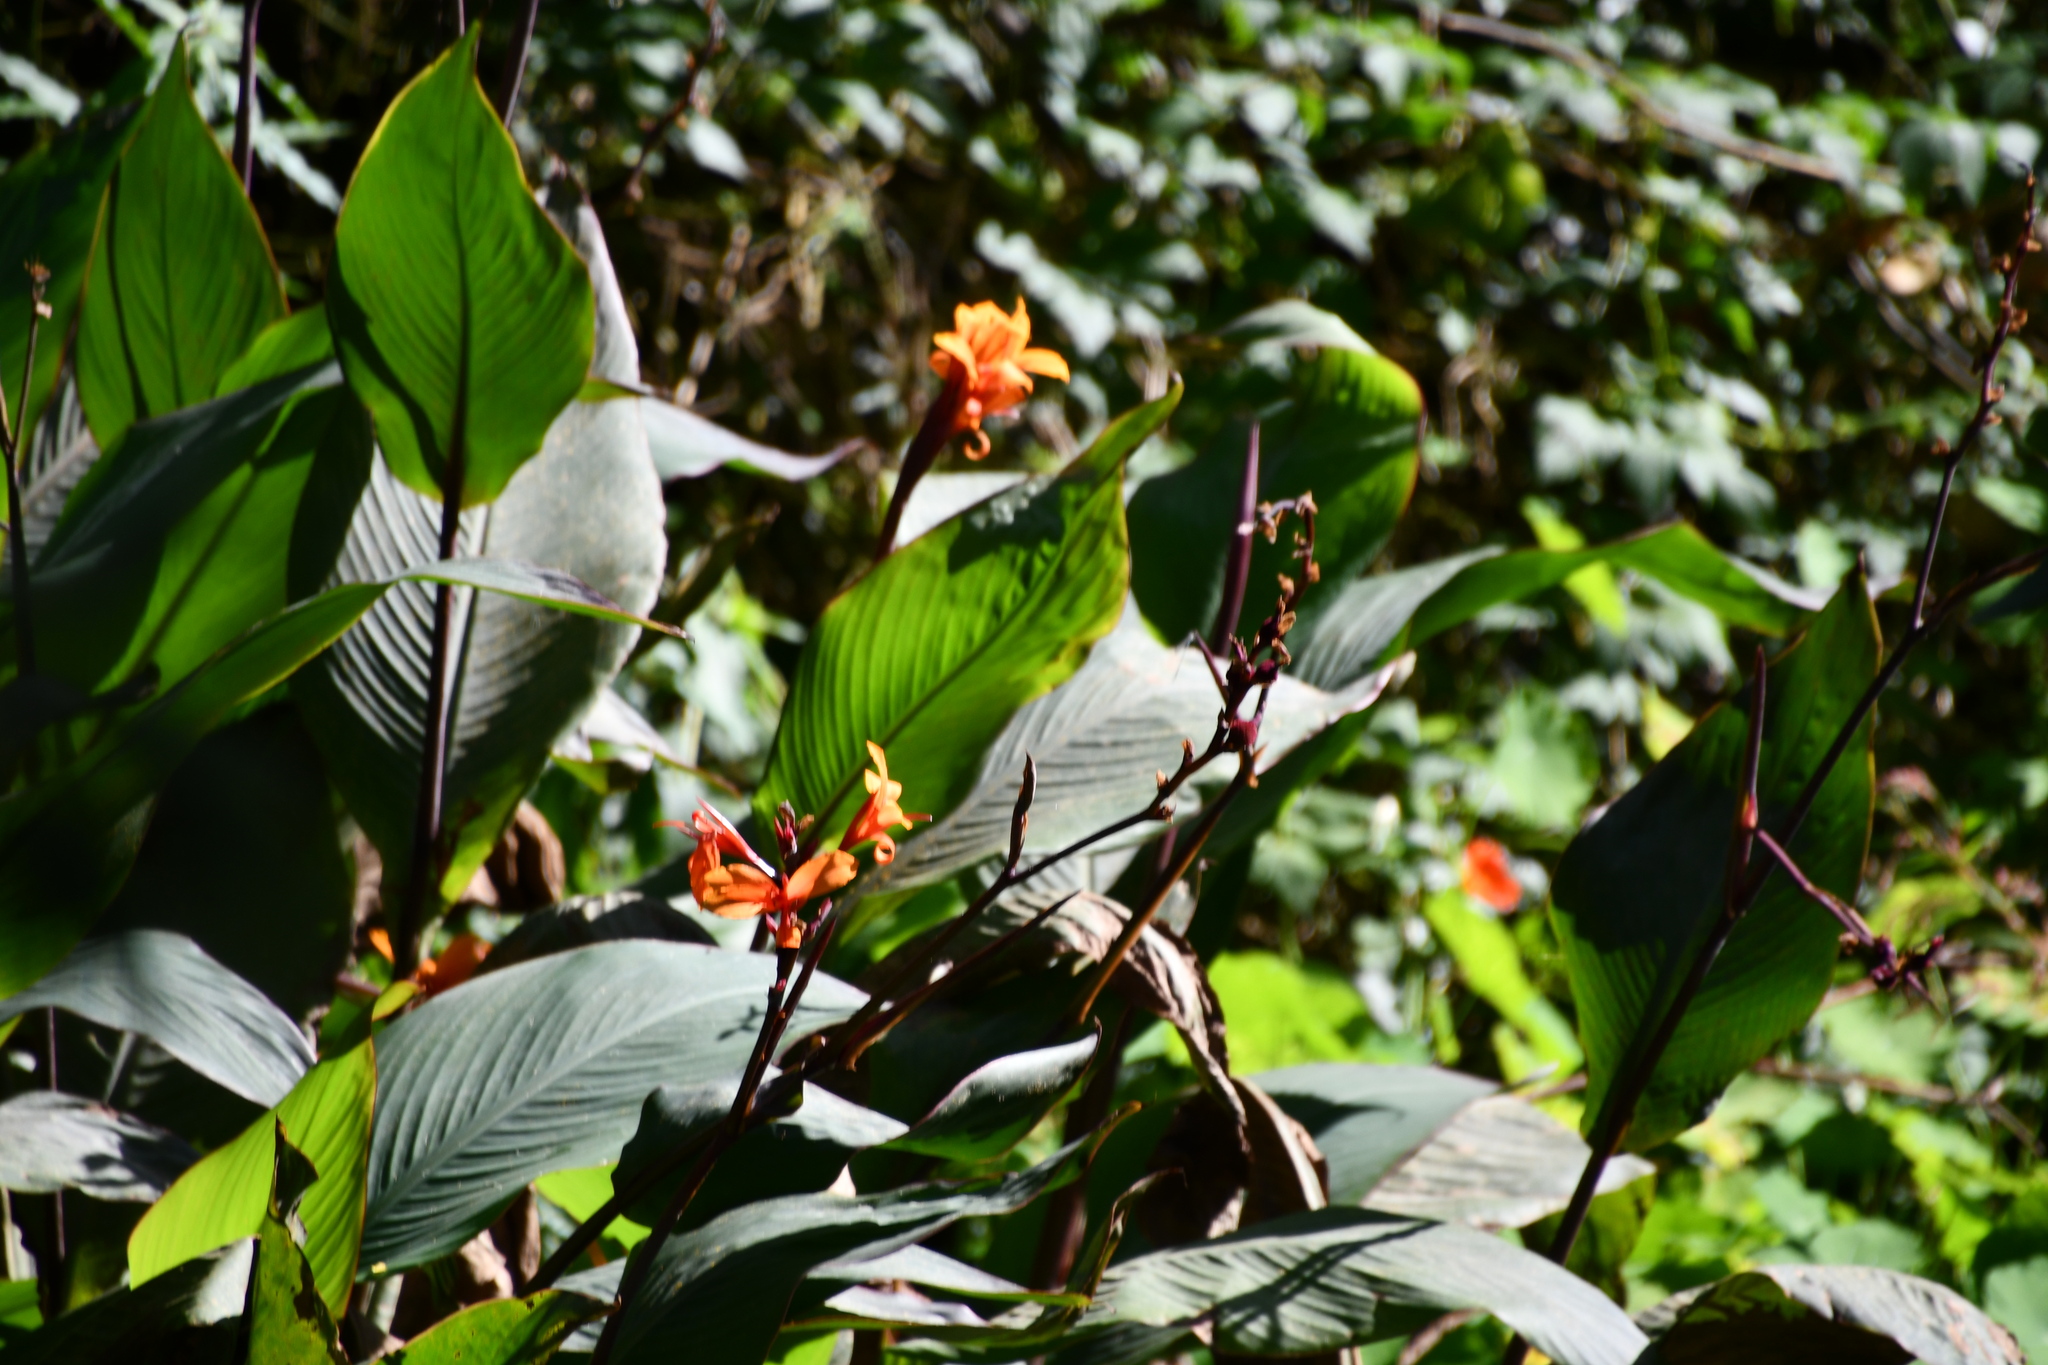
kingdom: Plantae
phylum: Tracheophyta
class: Liliopsida
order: Zingiberales
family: Cannaceae
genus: Canna
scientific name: Canna indica
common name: Indian shot
